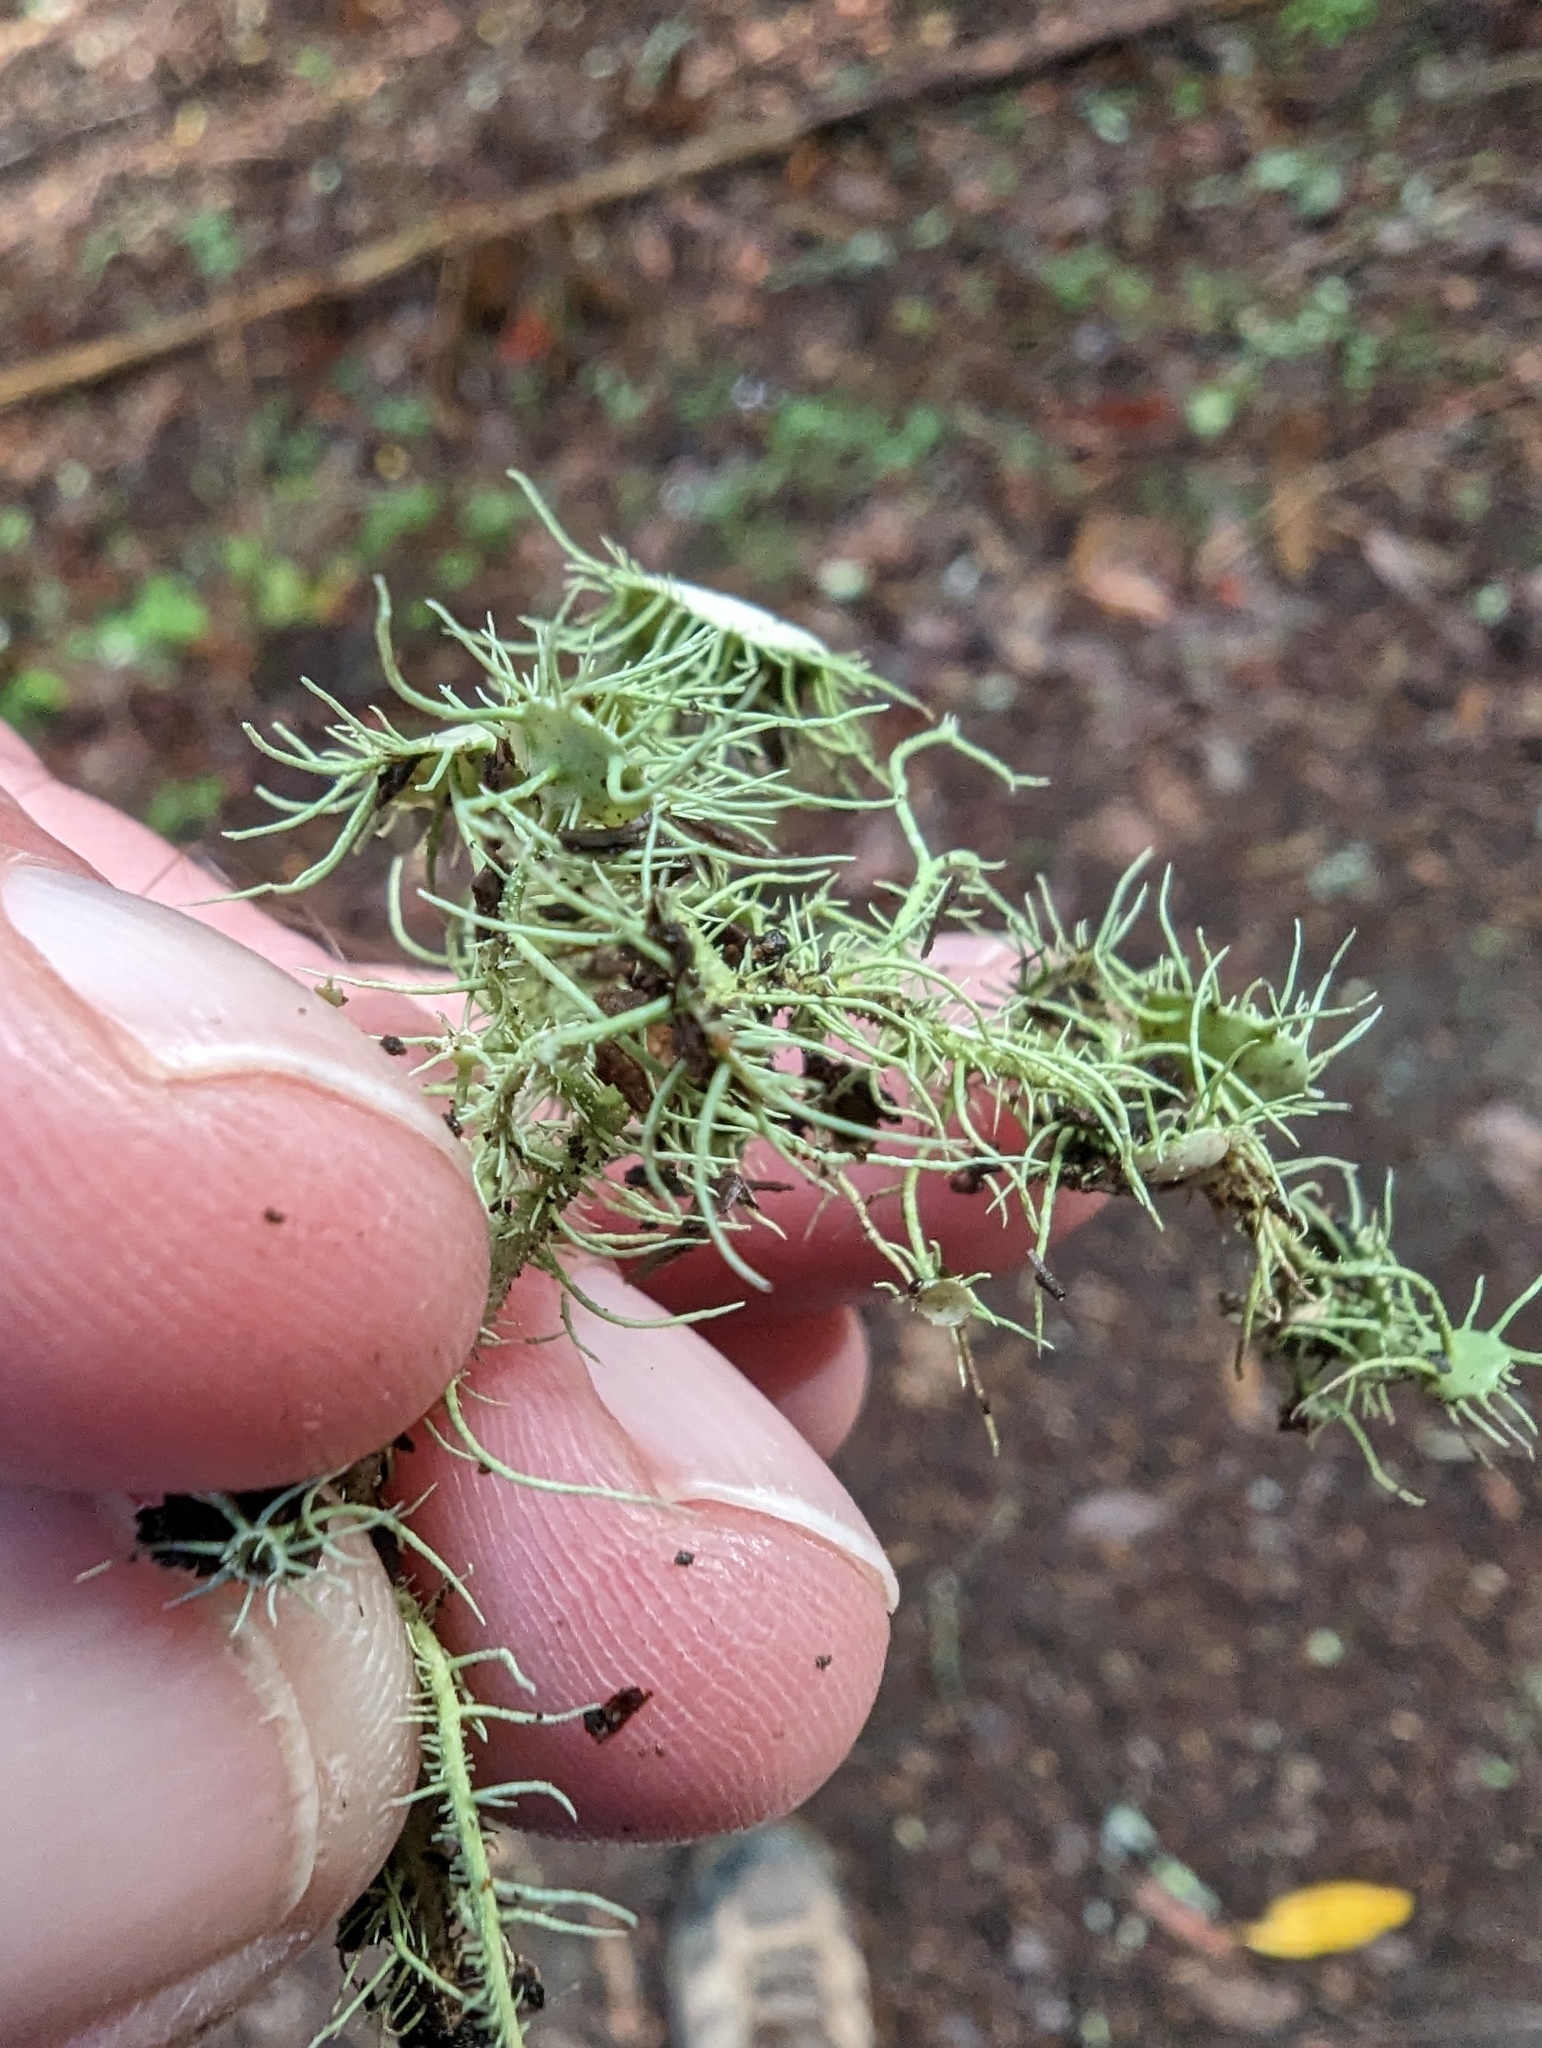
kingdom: Fungi
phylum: Ascomycota
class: Lecanoromycetes
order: Lecanorales
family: Parmeliaceae
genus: Usnea
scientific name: Usnea intermedia
